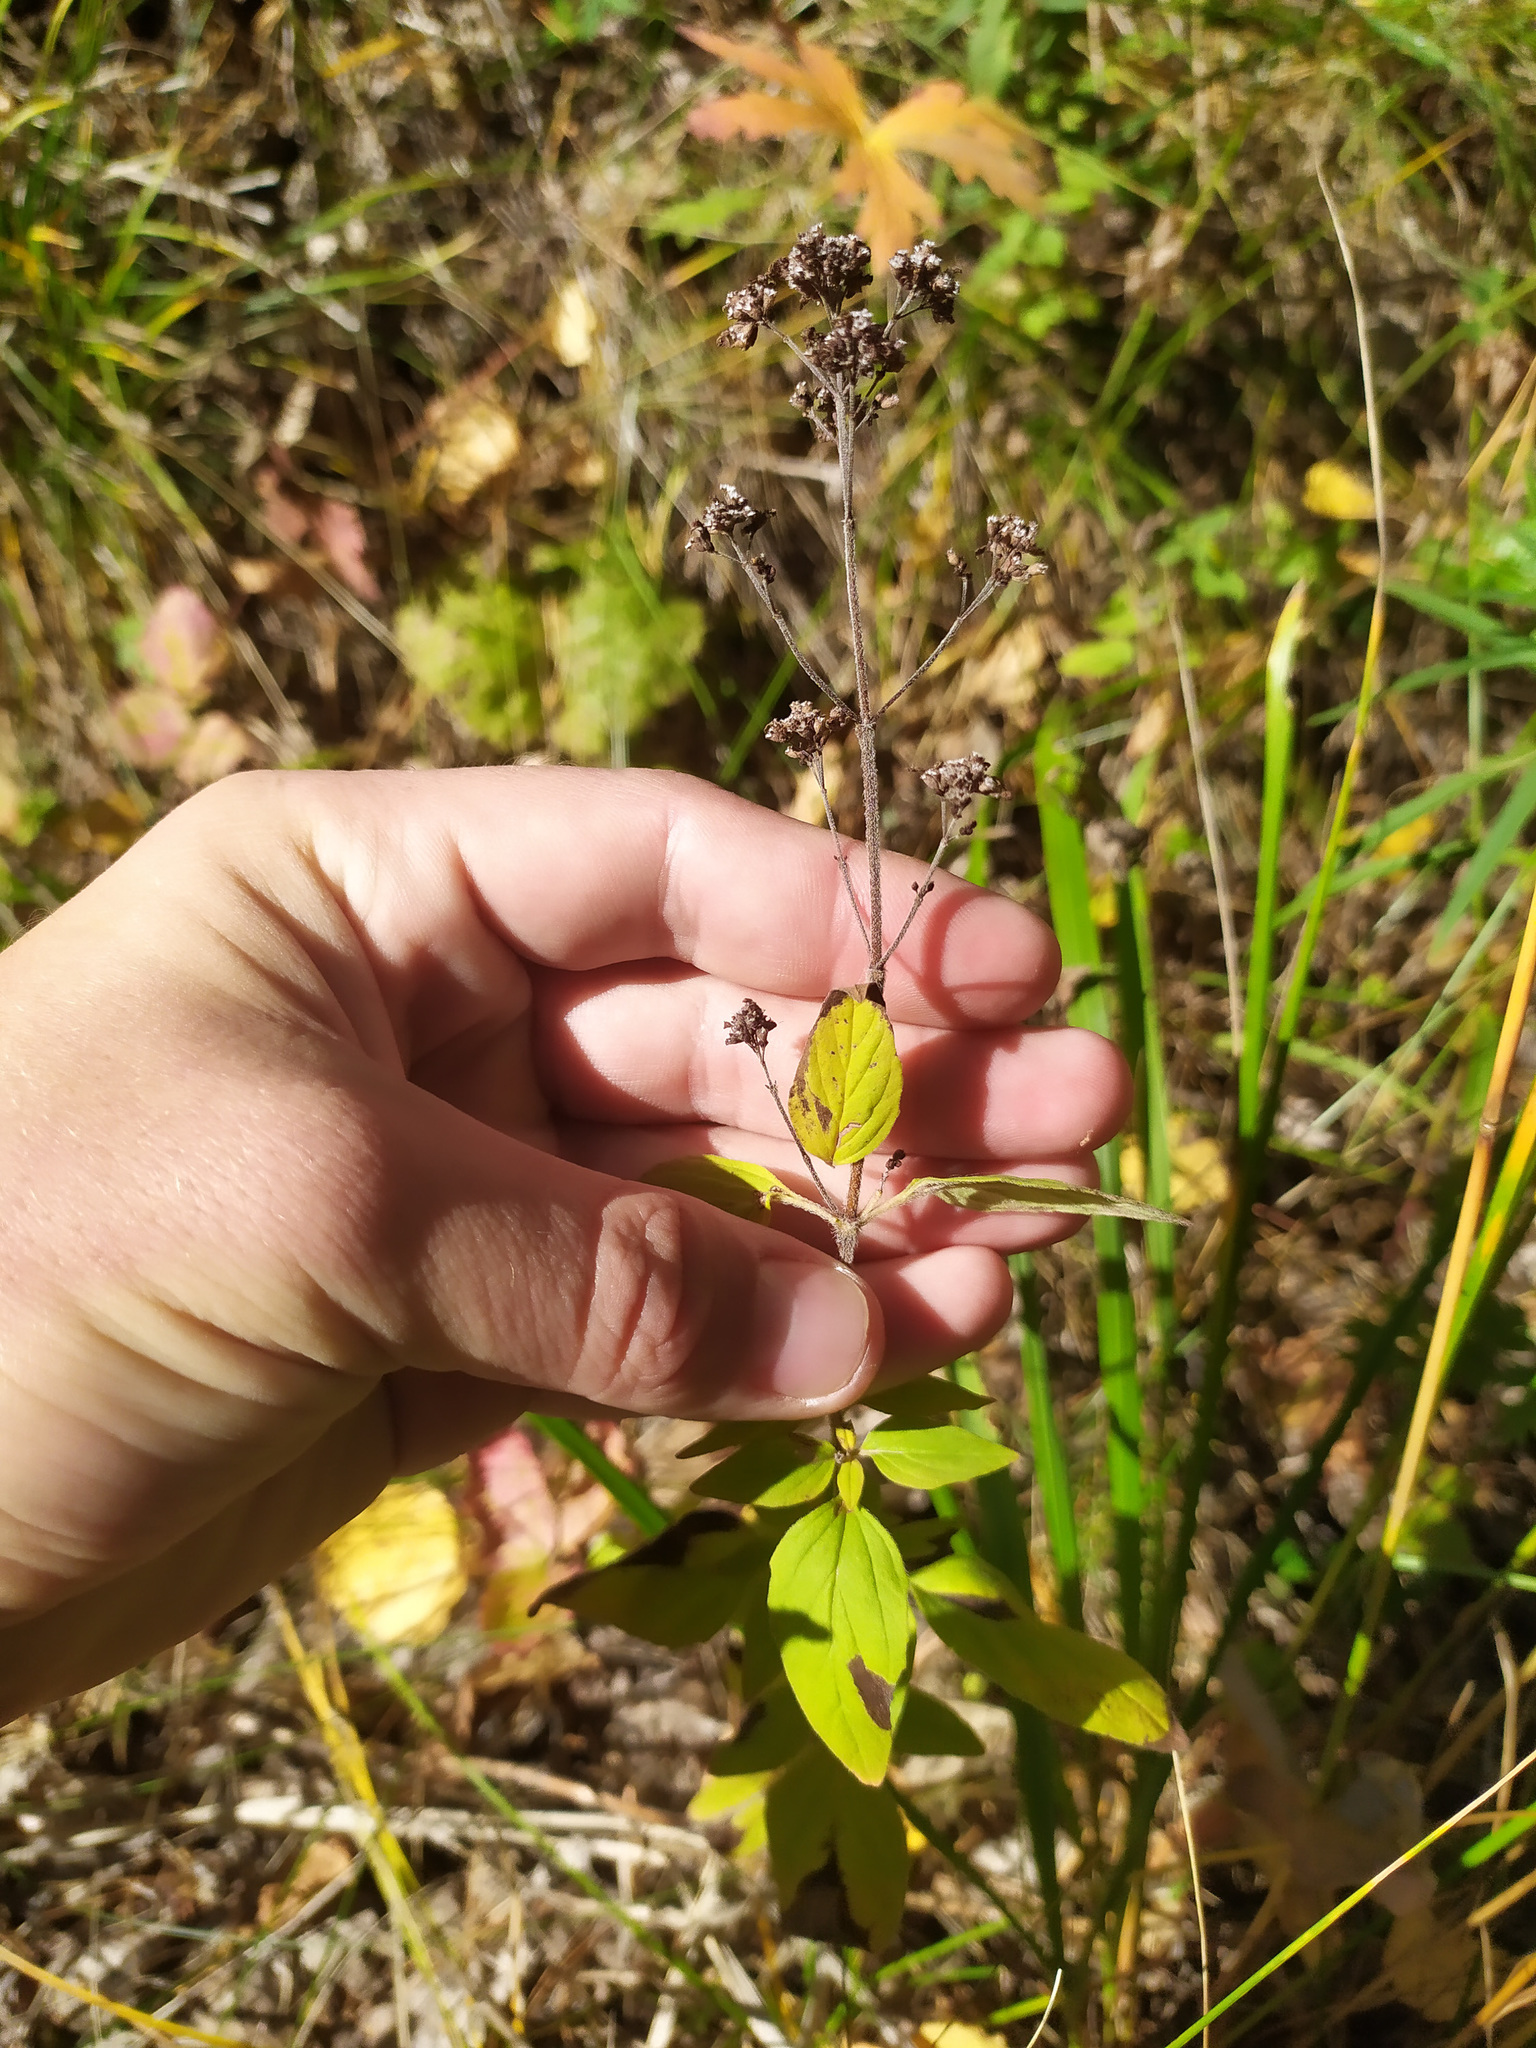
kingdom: Plantae
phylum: Tracheophyta
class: Magnoliopsida
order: Lamiales
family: Lamiaceae
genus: Origanum
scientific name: Origanum vulgare
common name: Wild marjoram
